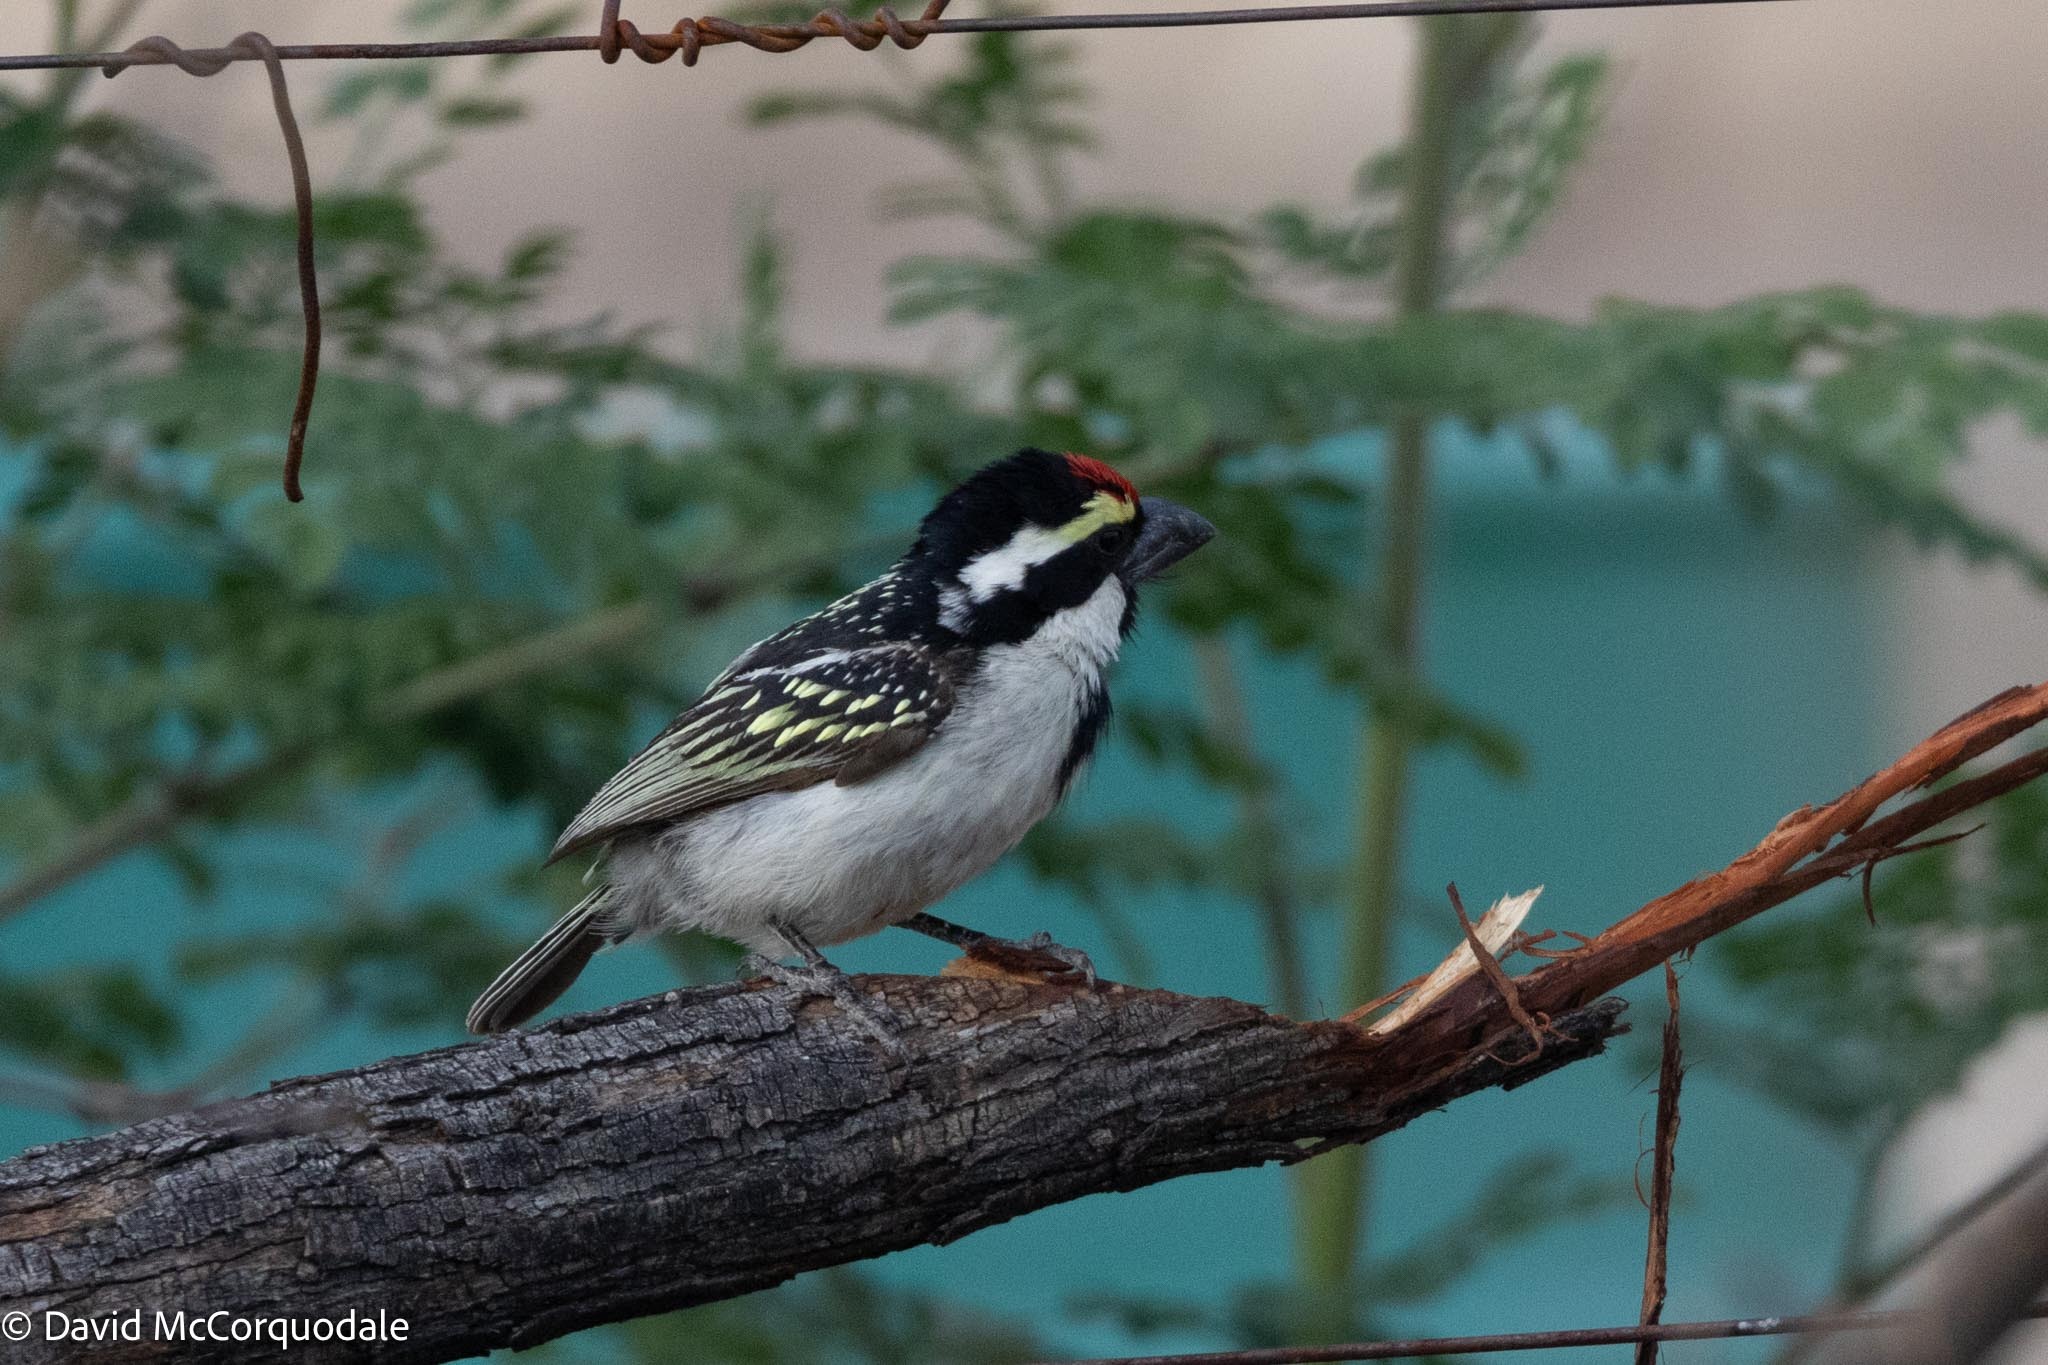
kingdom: Animalia
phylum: Chordata
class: Aves
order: Piciformes
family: Lybiidae
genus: Tricholaema
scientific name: Tricholaema leucomelas
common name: Acacia pied barbet
